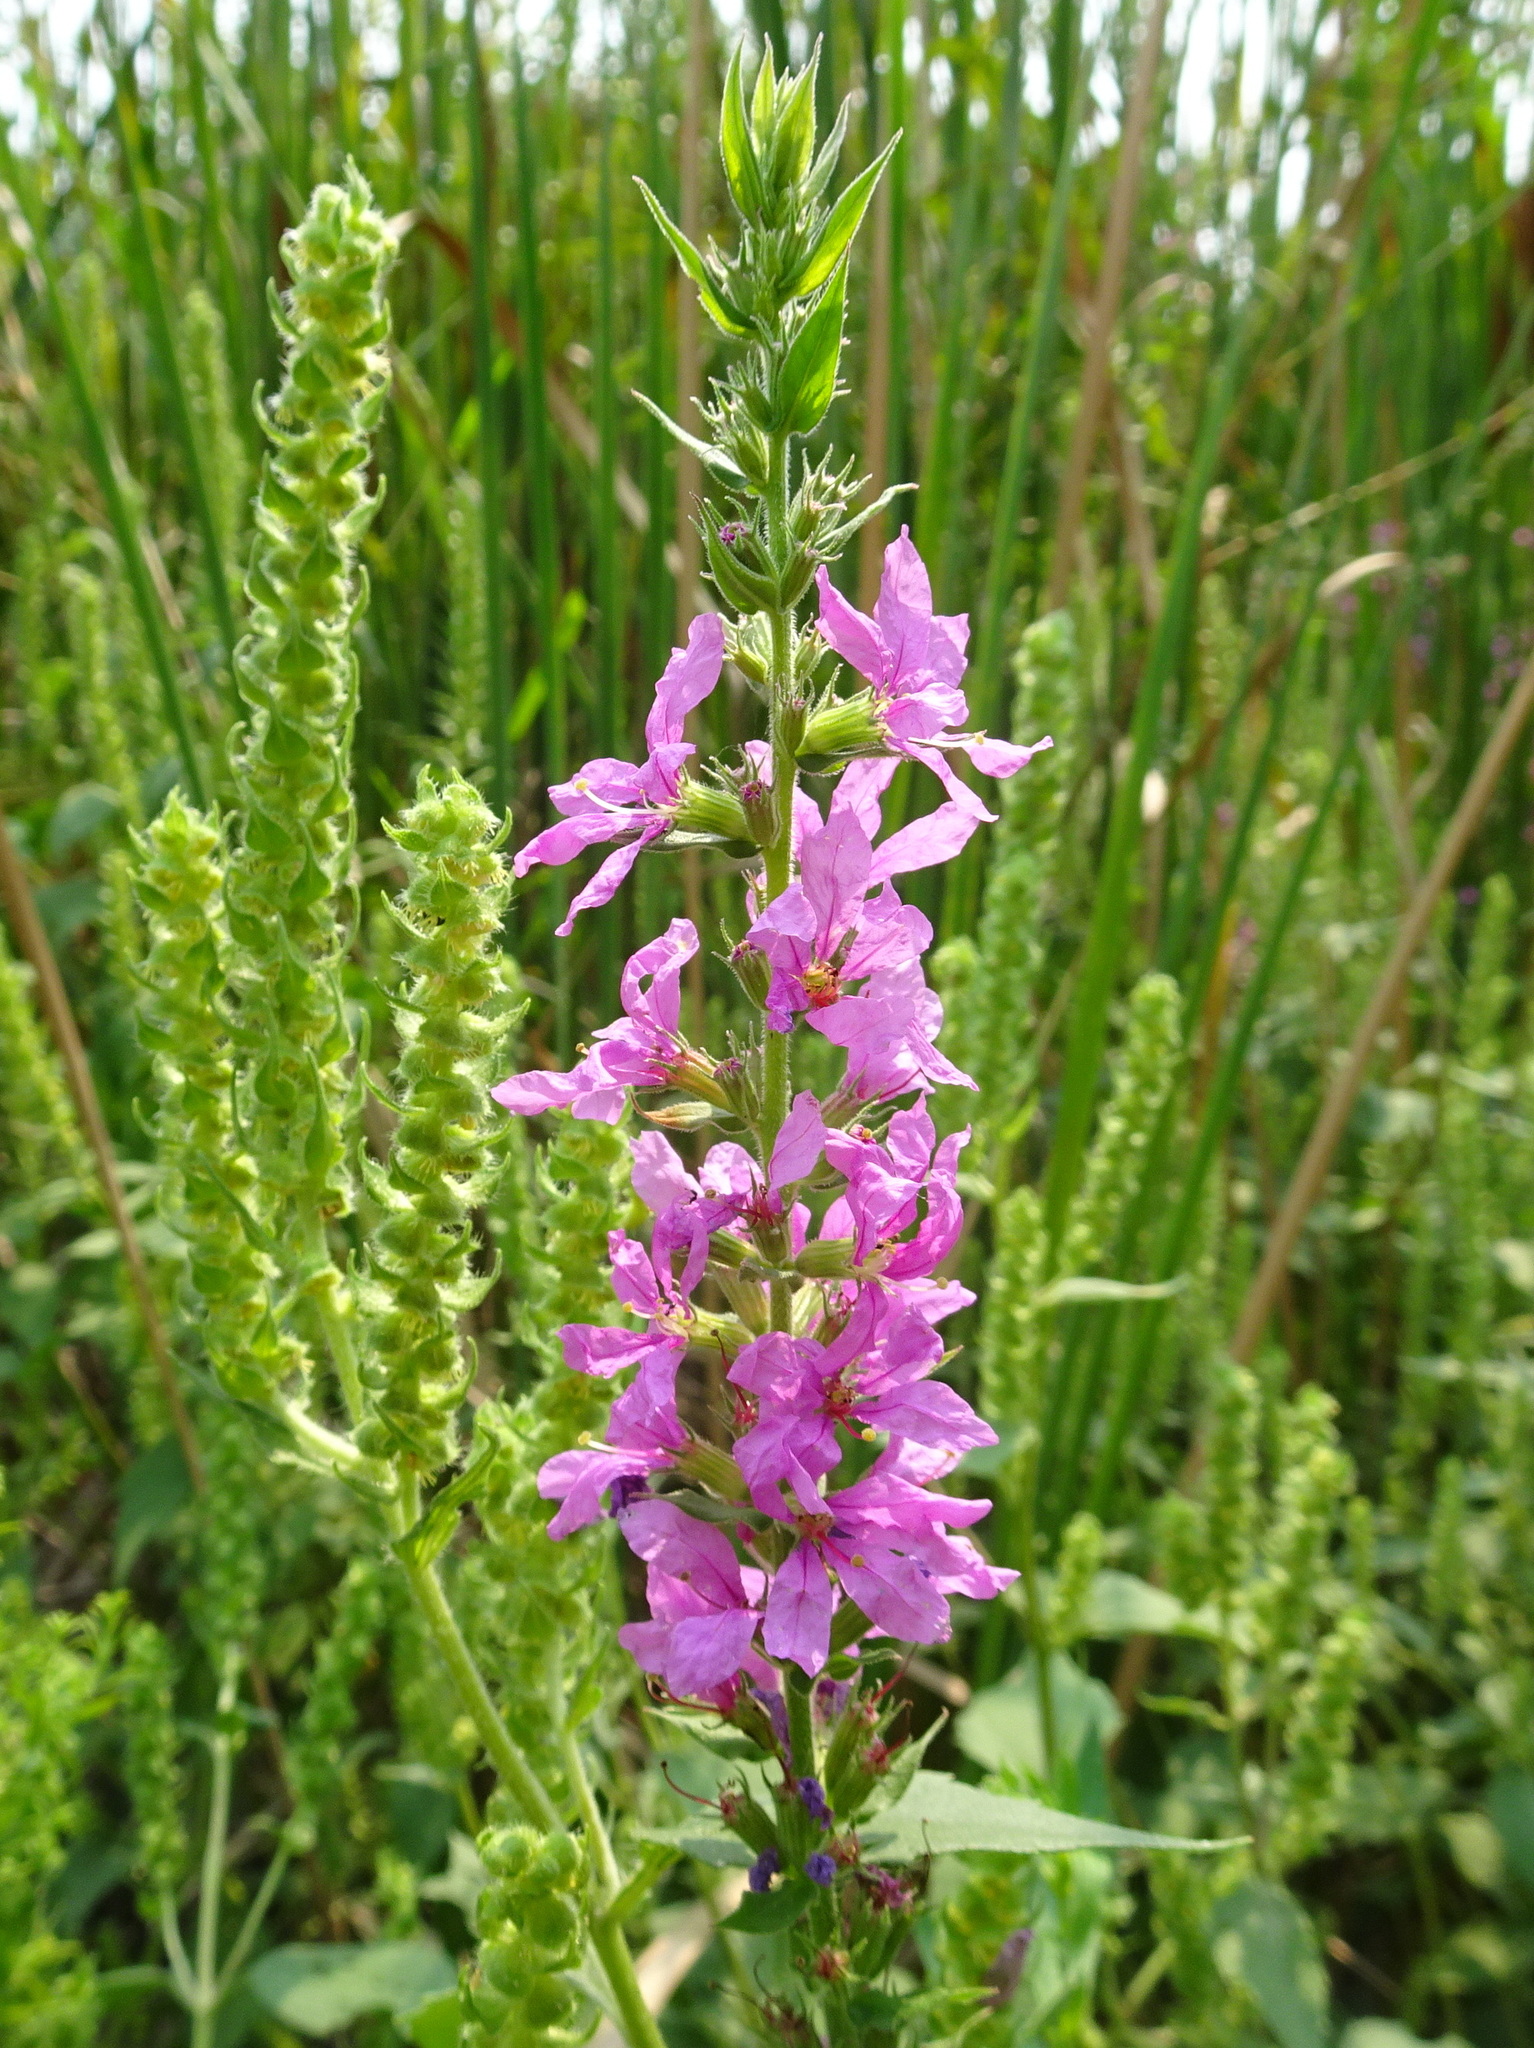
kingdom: Plantae
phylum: Tracheophyta
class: Magnoliopsida
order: Myrtales
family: Lythraceae
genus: Lythrum
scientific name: Lythrum salicaria
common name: Purple loosestrife
